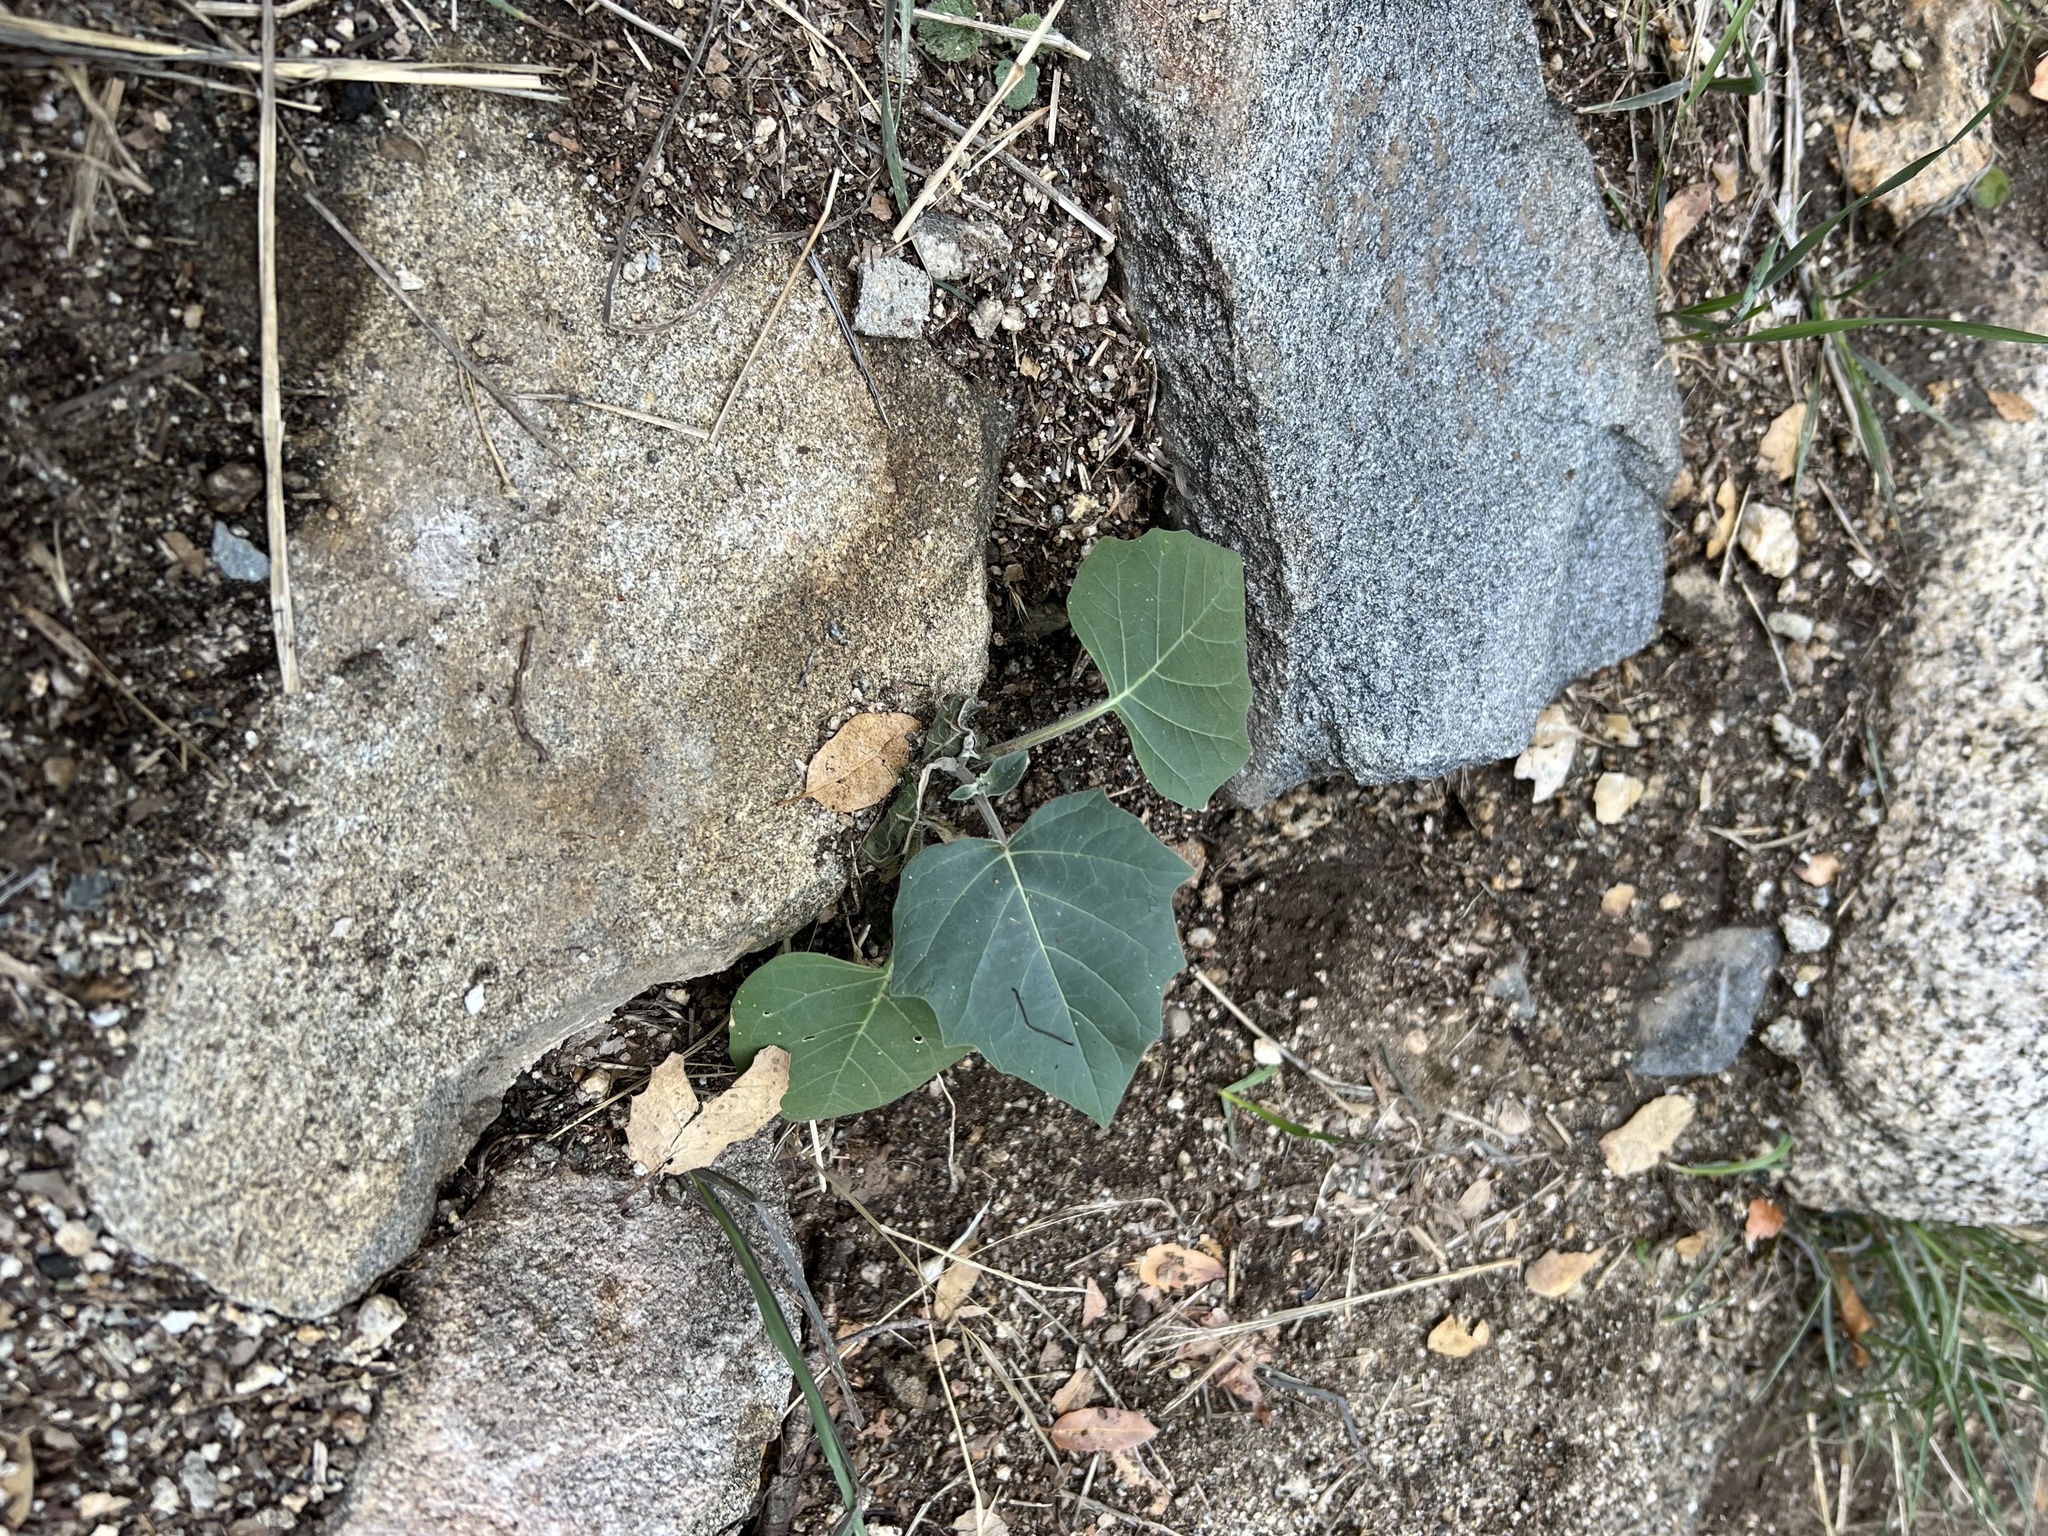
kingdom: Plantae
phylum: Tracheophyta
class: Magnoliopsida
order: Solanales
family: Solanaceae
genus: Datura
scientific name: Datura wrightii
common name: Sacred thorn-apple
